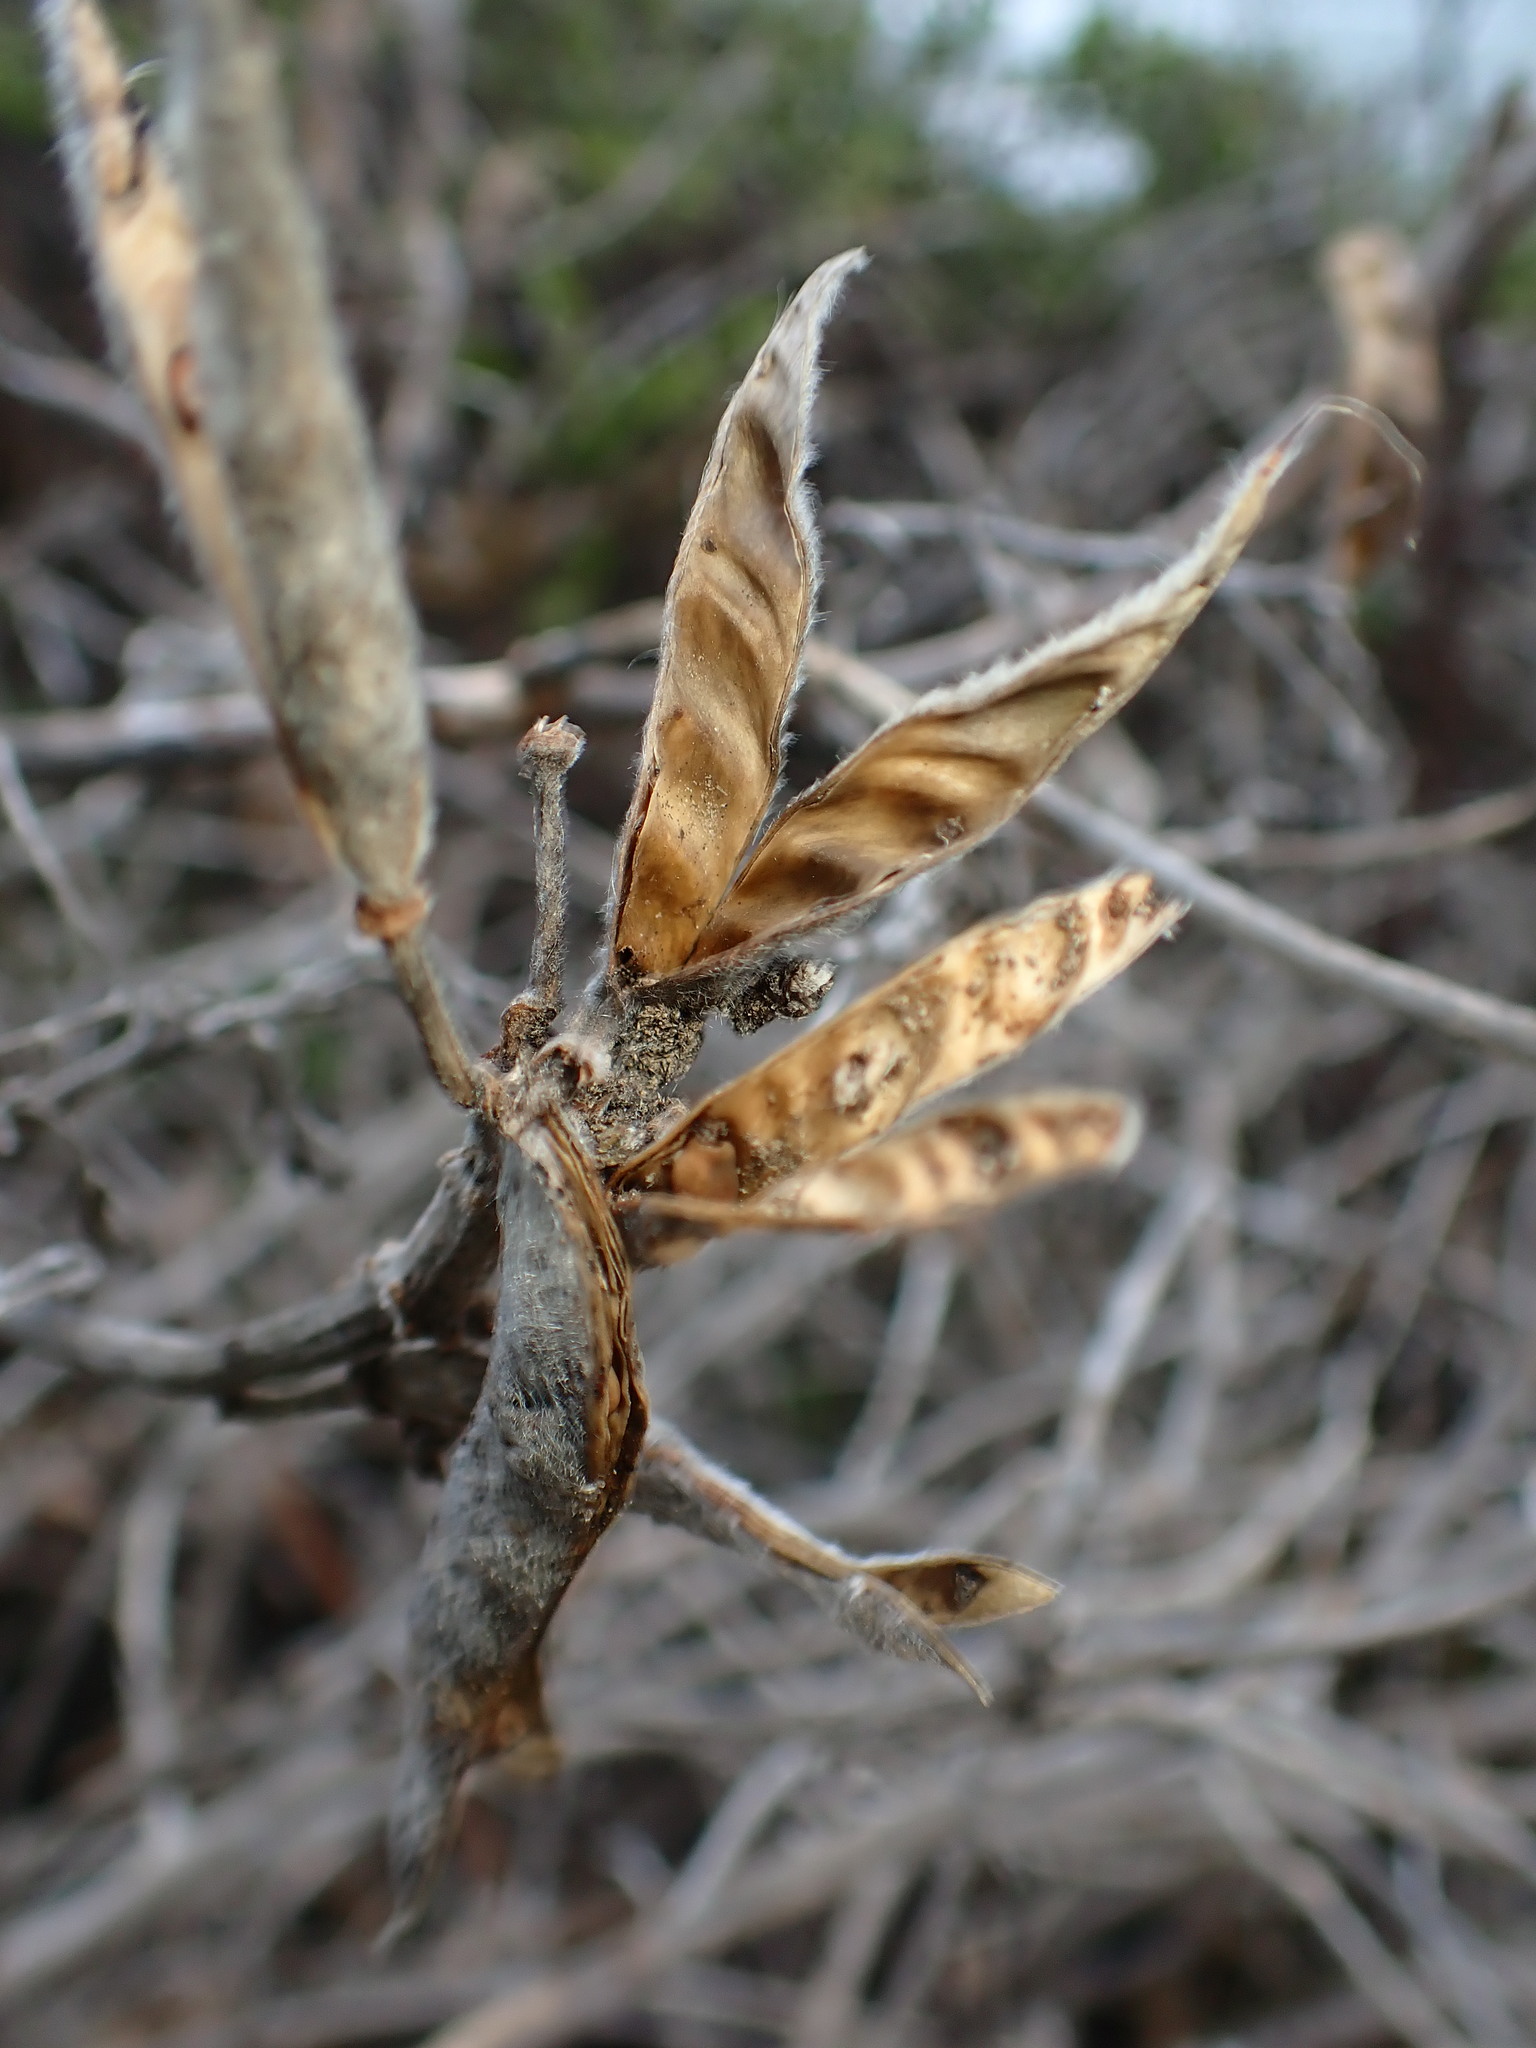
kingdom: Animalia
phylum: Arthropoda
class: Insecta
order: Diptera
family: Cecidomyiidae
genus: Dasineura
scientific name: Dasineura lupini
